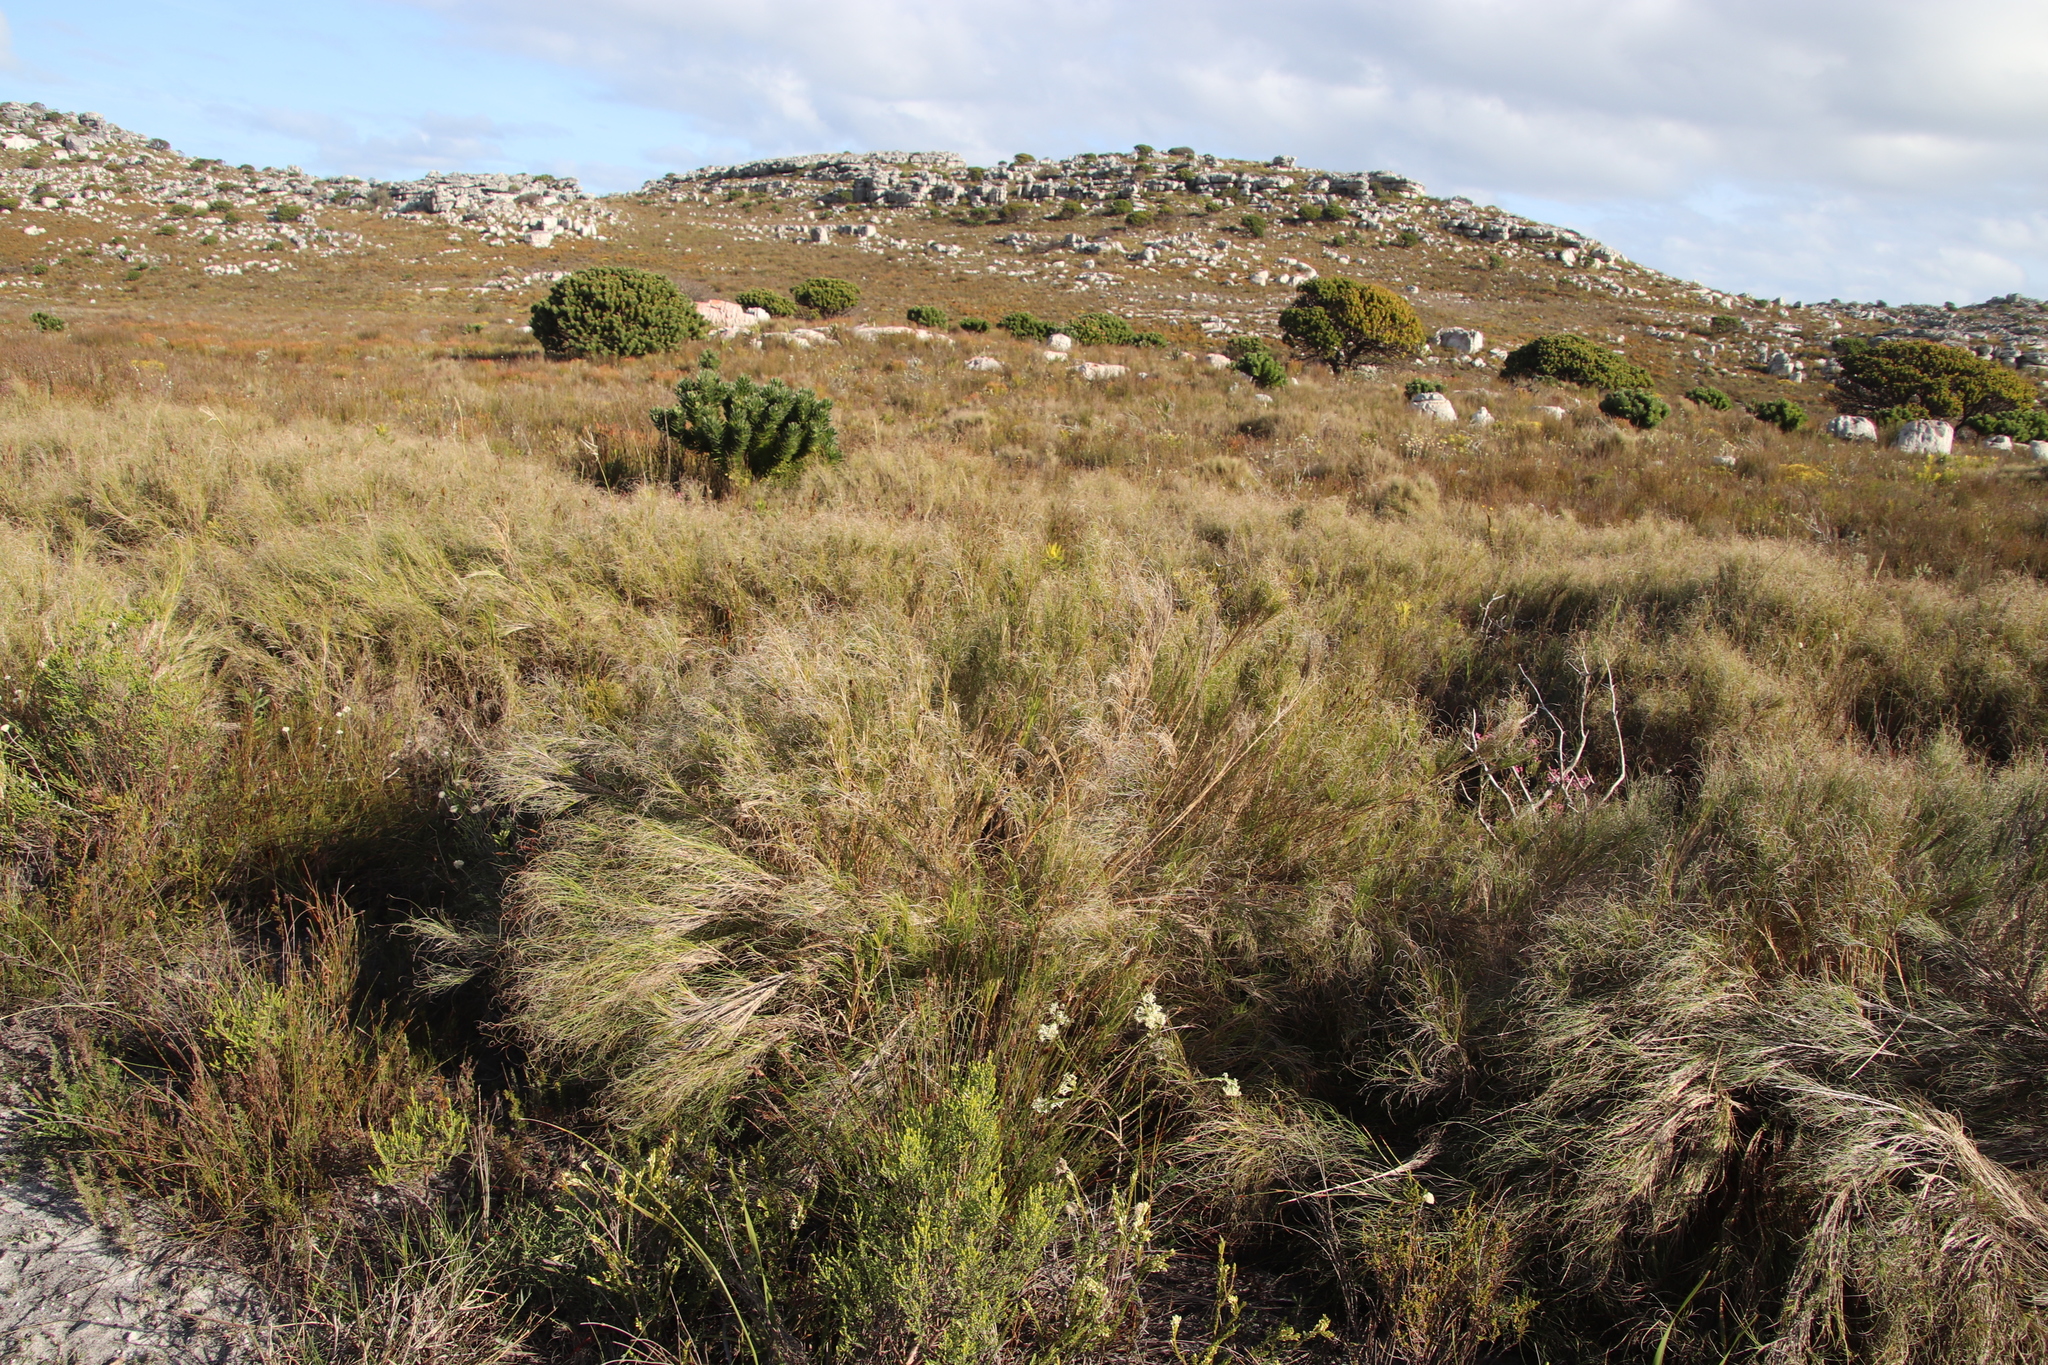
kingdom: Plantae
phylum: Tracheophyta
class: Liliopsida
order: Poales
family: Poaceae
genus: Pseudopentameris
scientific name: Pseudopentameris macrantha
